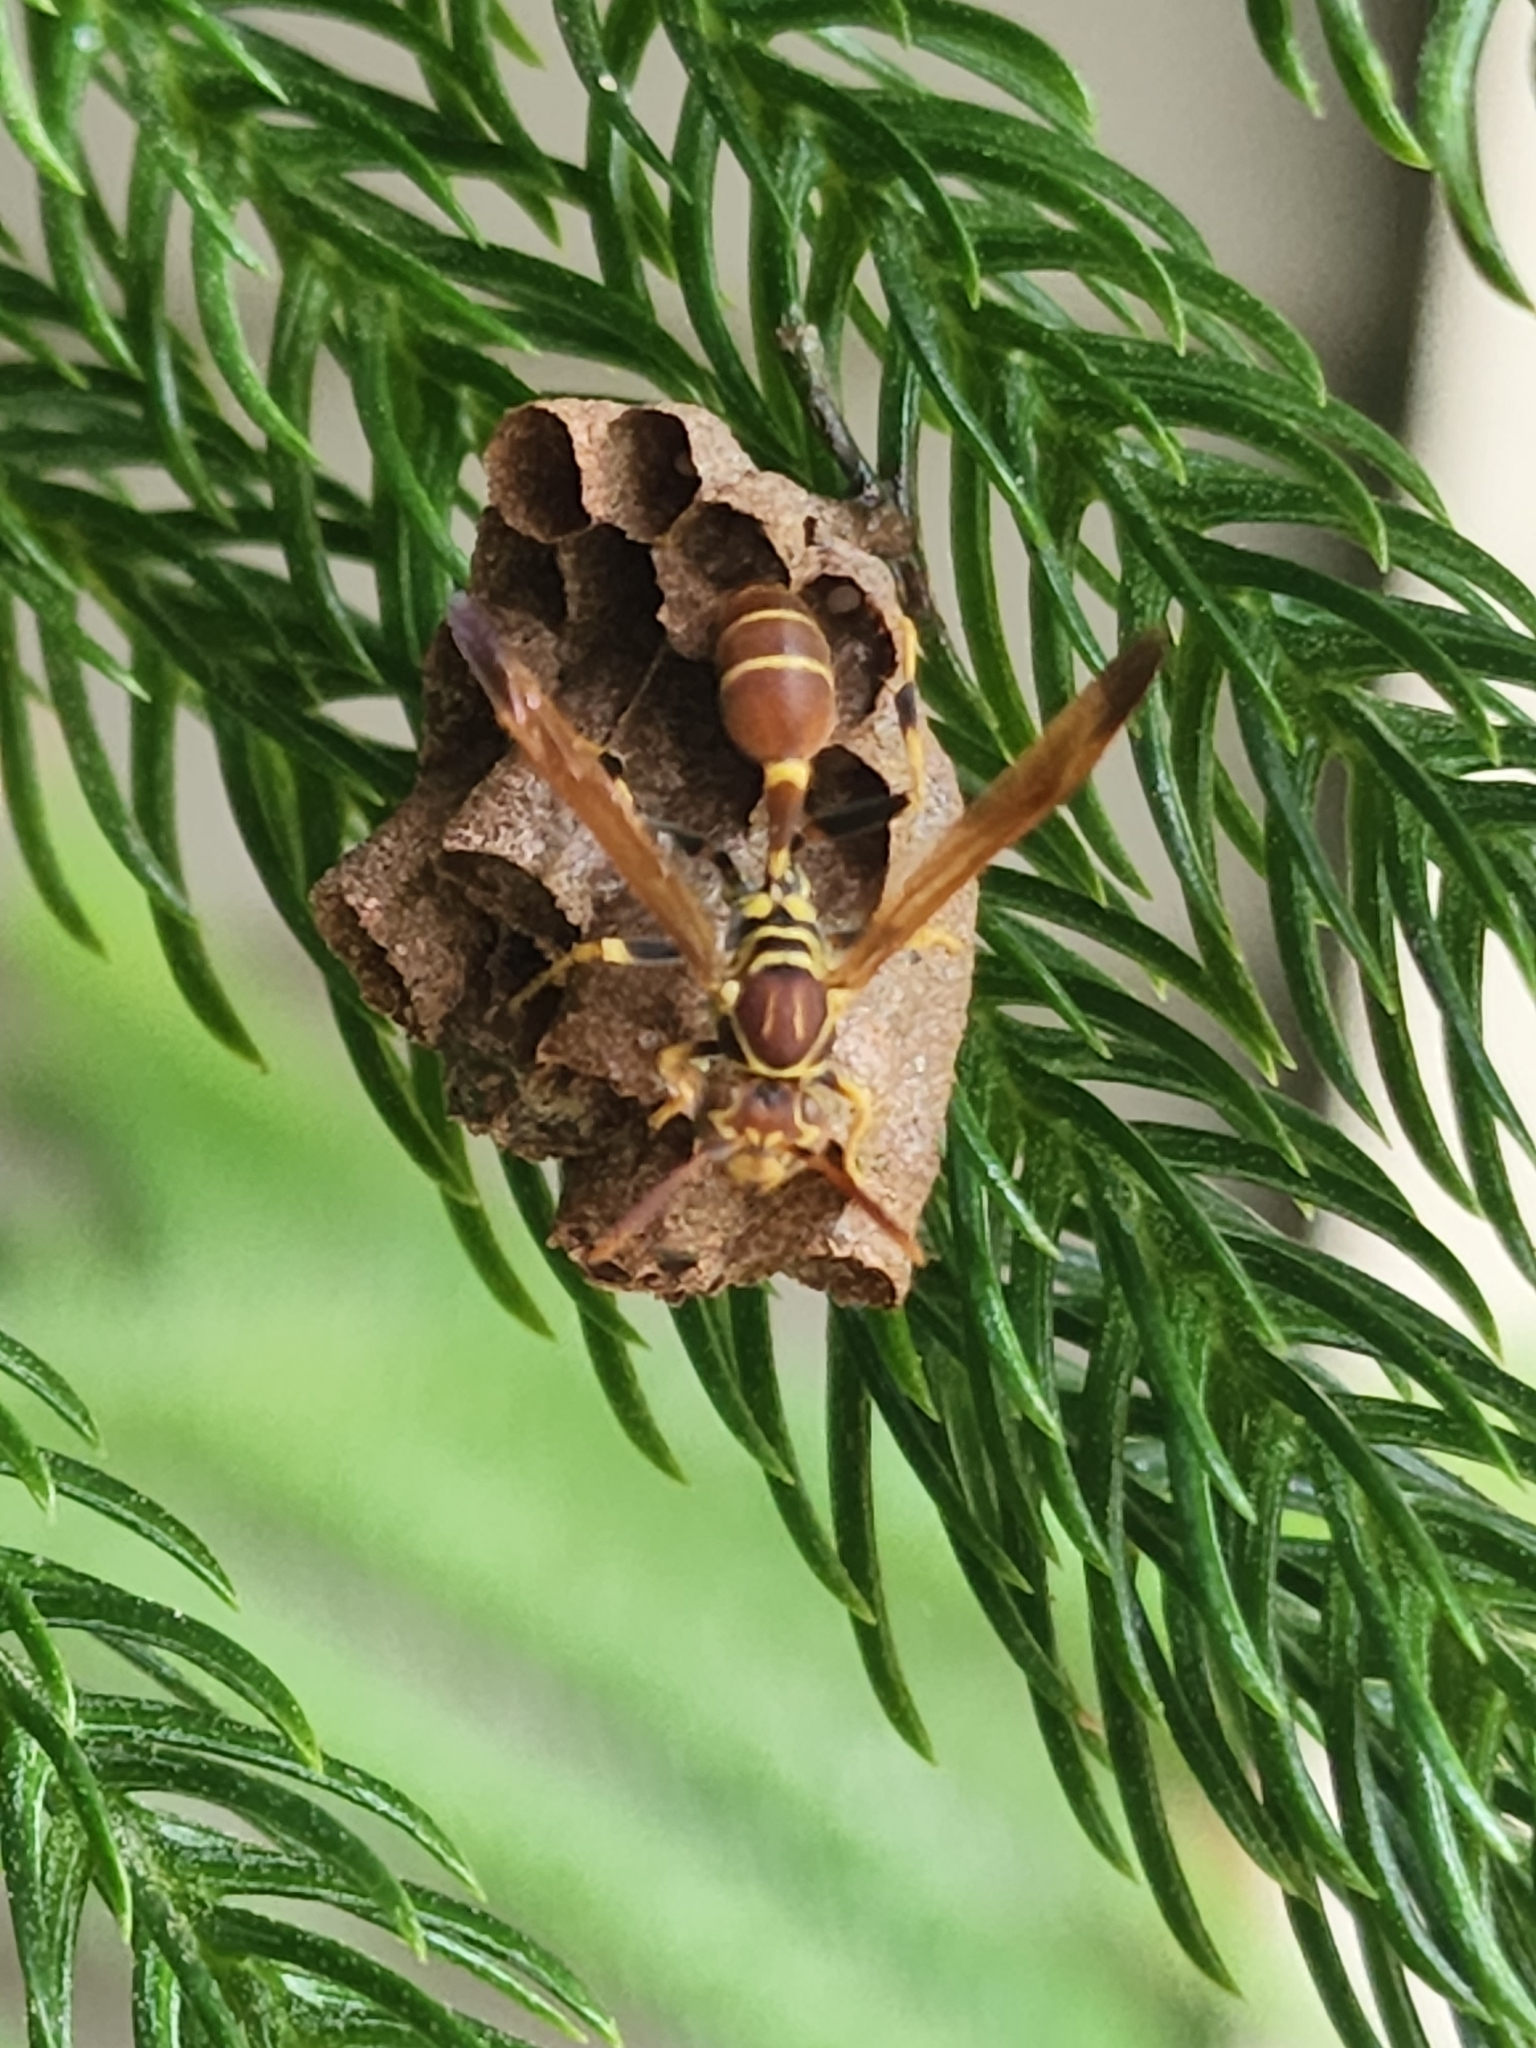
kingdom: Animalia
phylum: Arthropoda
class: Insecta
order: Hymenoptera
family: Vespidae
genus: Mischocyttarus
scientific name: Mischocyttarus mexicanus
